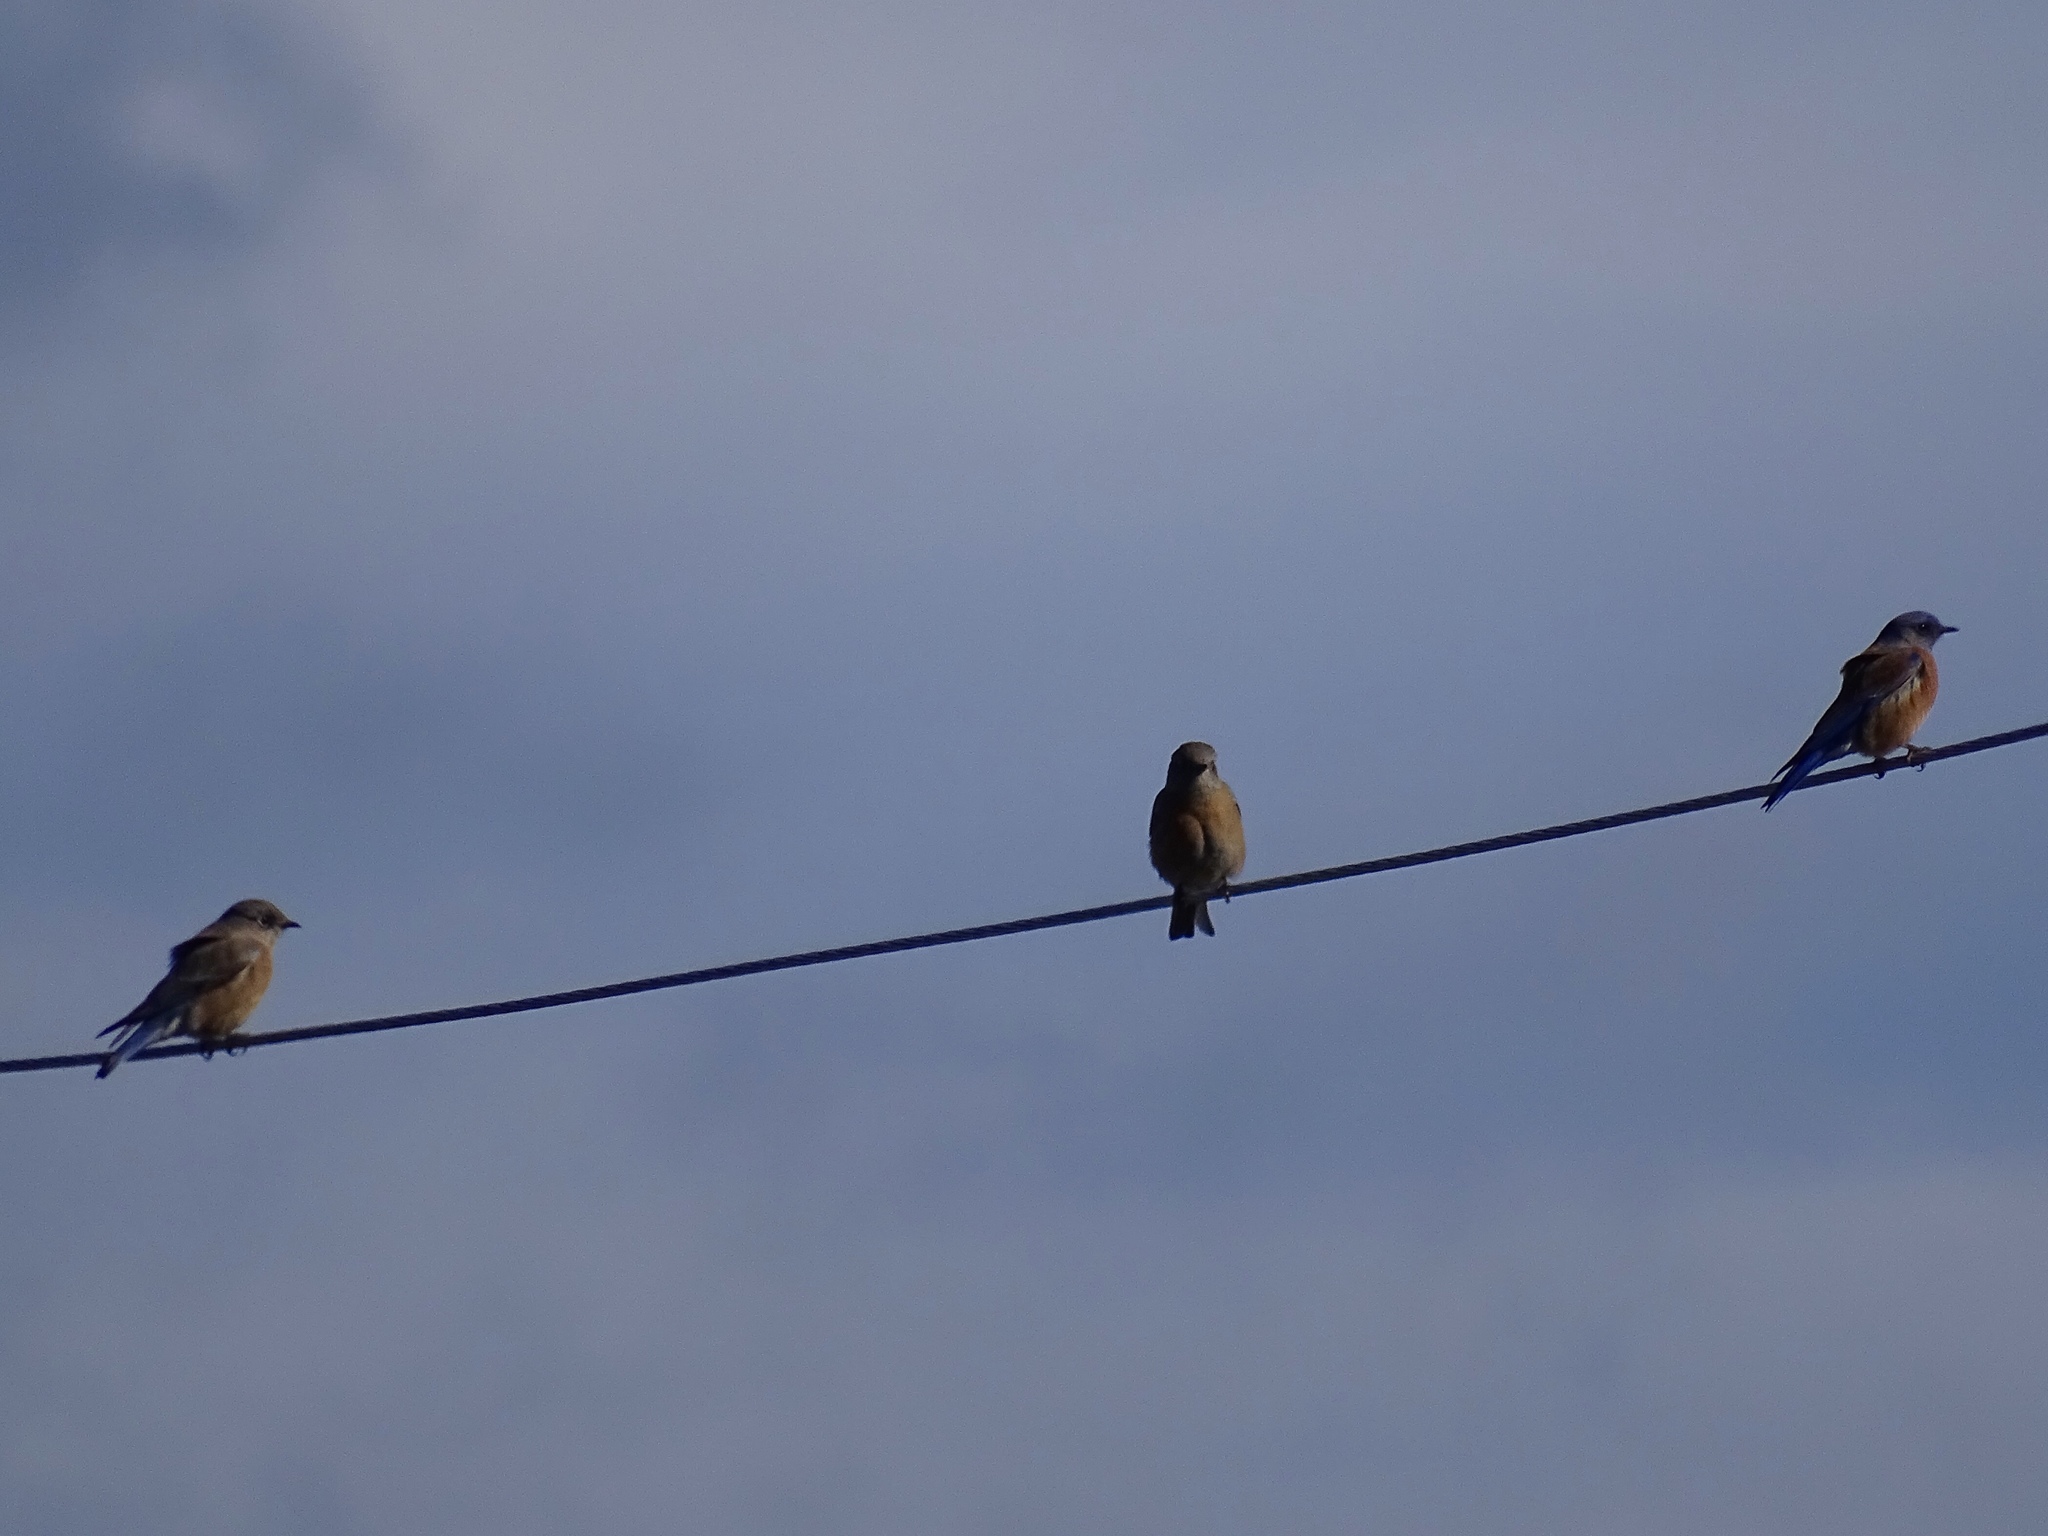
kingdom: Animalia
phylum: Chordata
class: Aves
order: Passeriformes
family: Turdidae
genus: Sialia
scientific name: Sialia mexicana
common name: Western bluebird
